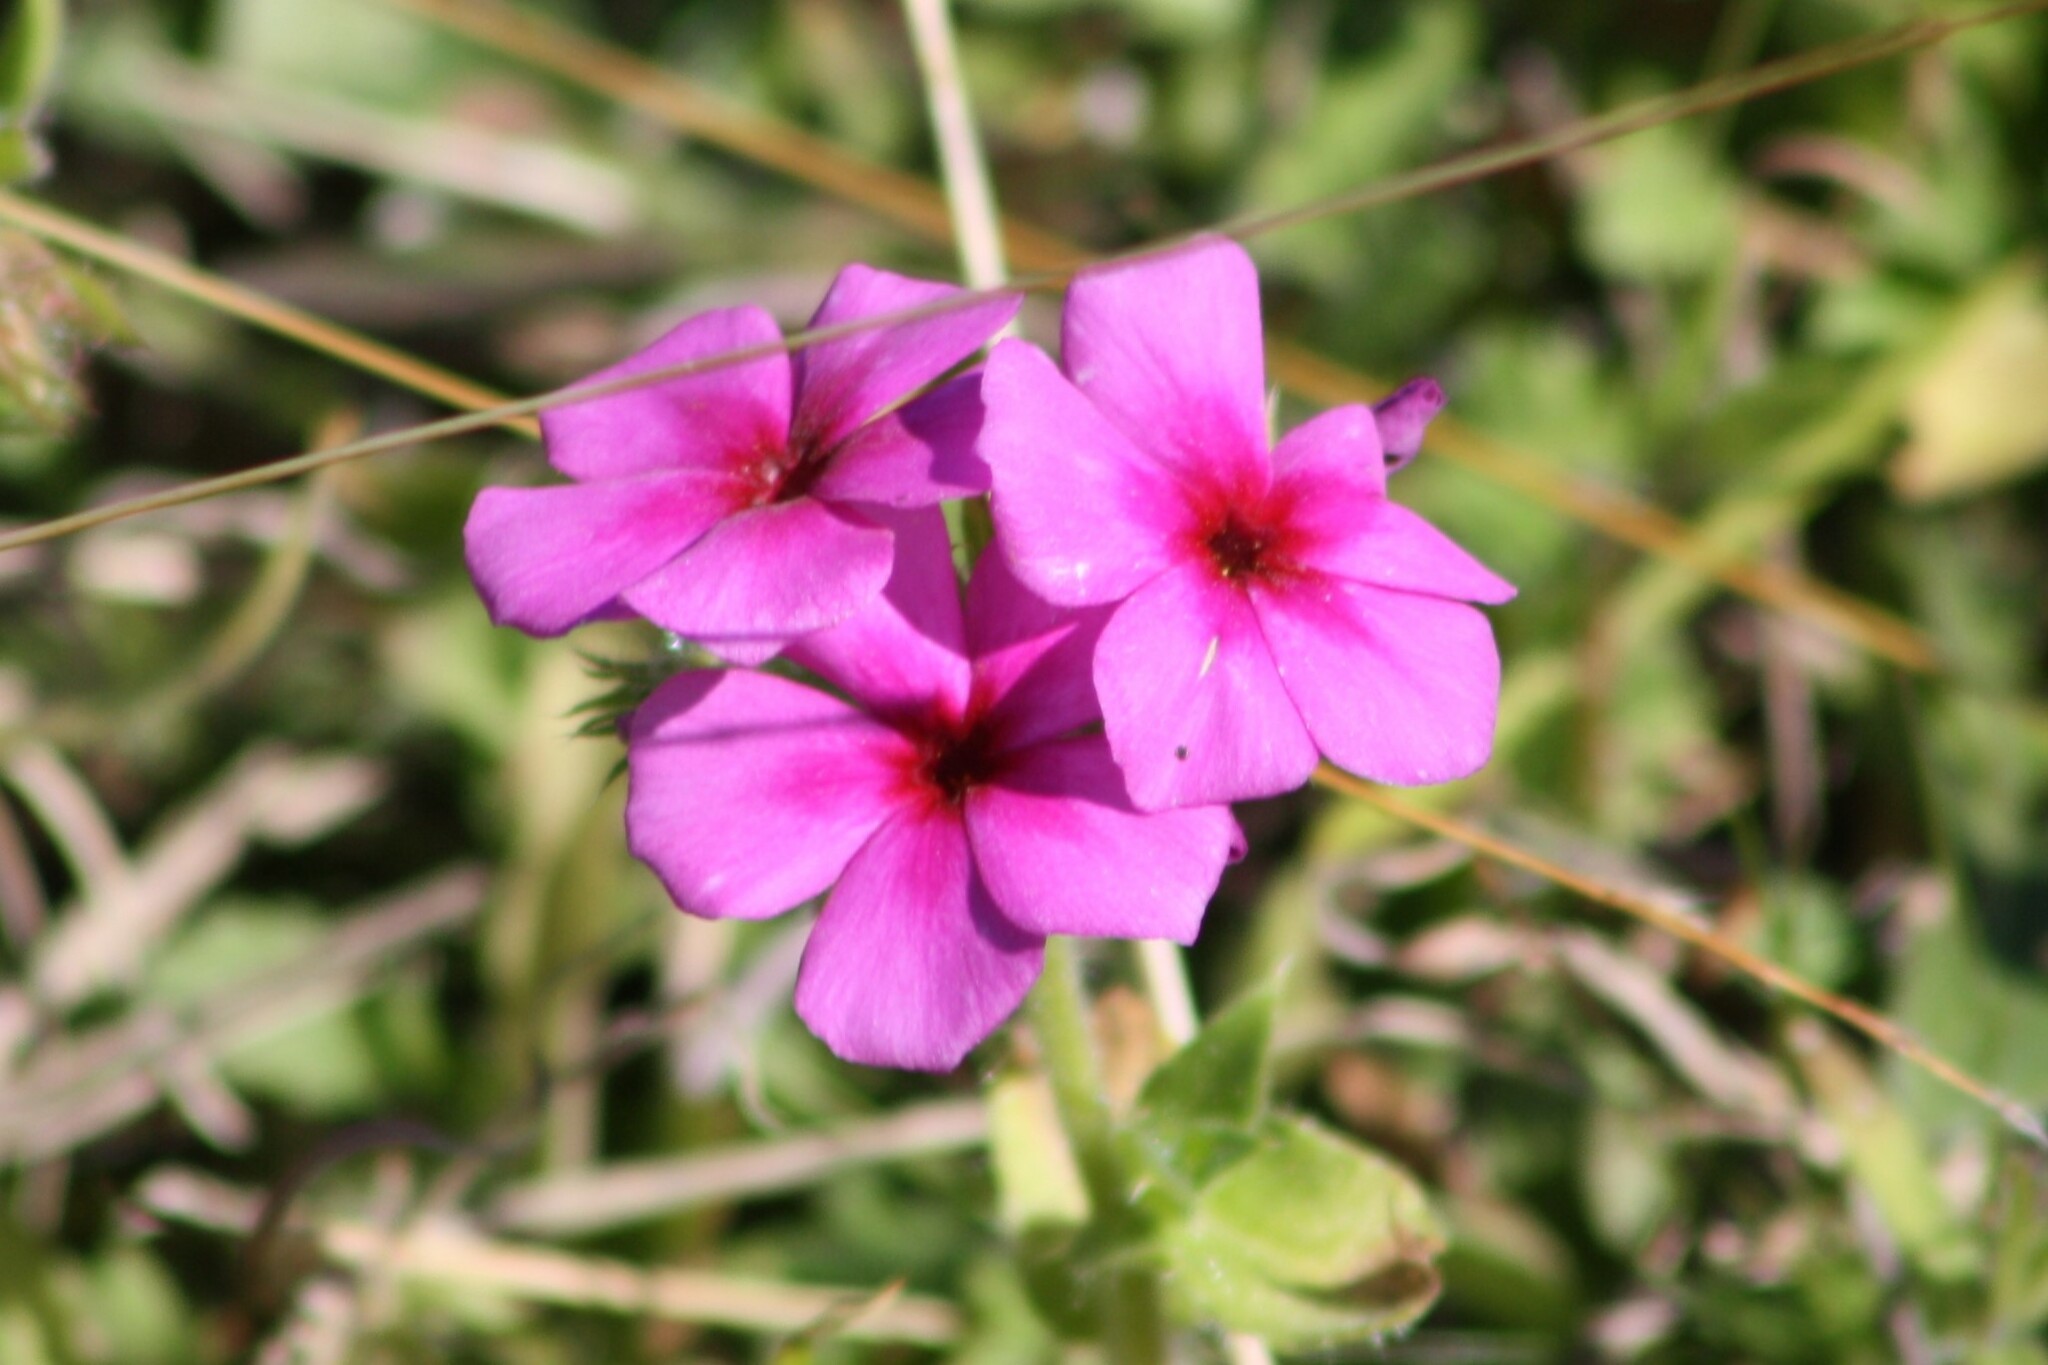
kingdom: Plantae
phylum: Tracheophyta
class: Magnoliopsida
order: Ericales
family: Polemoniaceae
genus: Phlox
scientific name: Phlox drummondii
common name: Drummond's phlox
